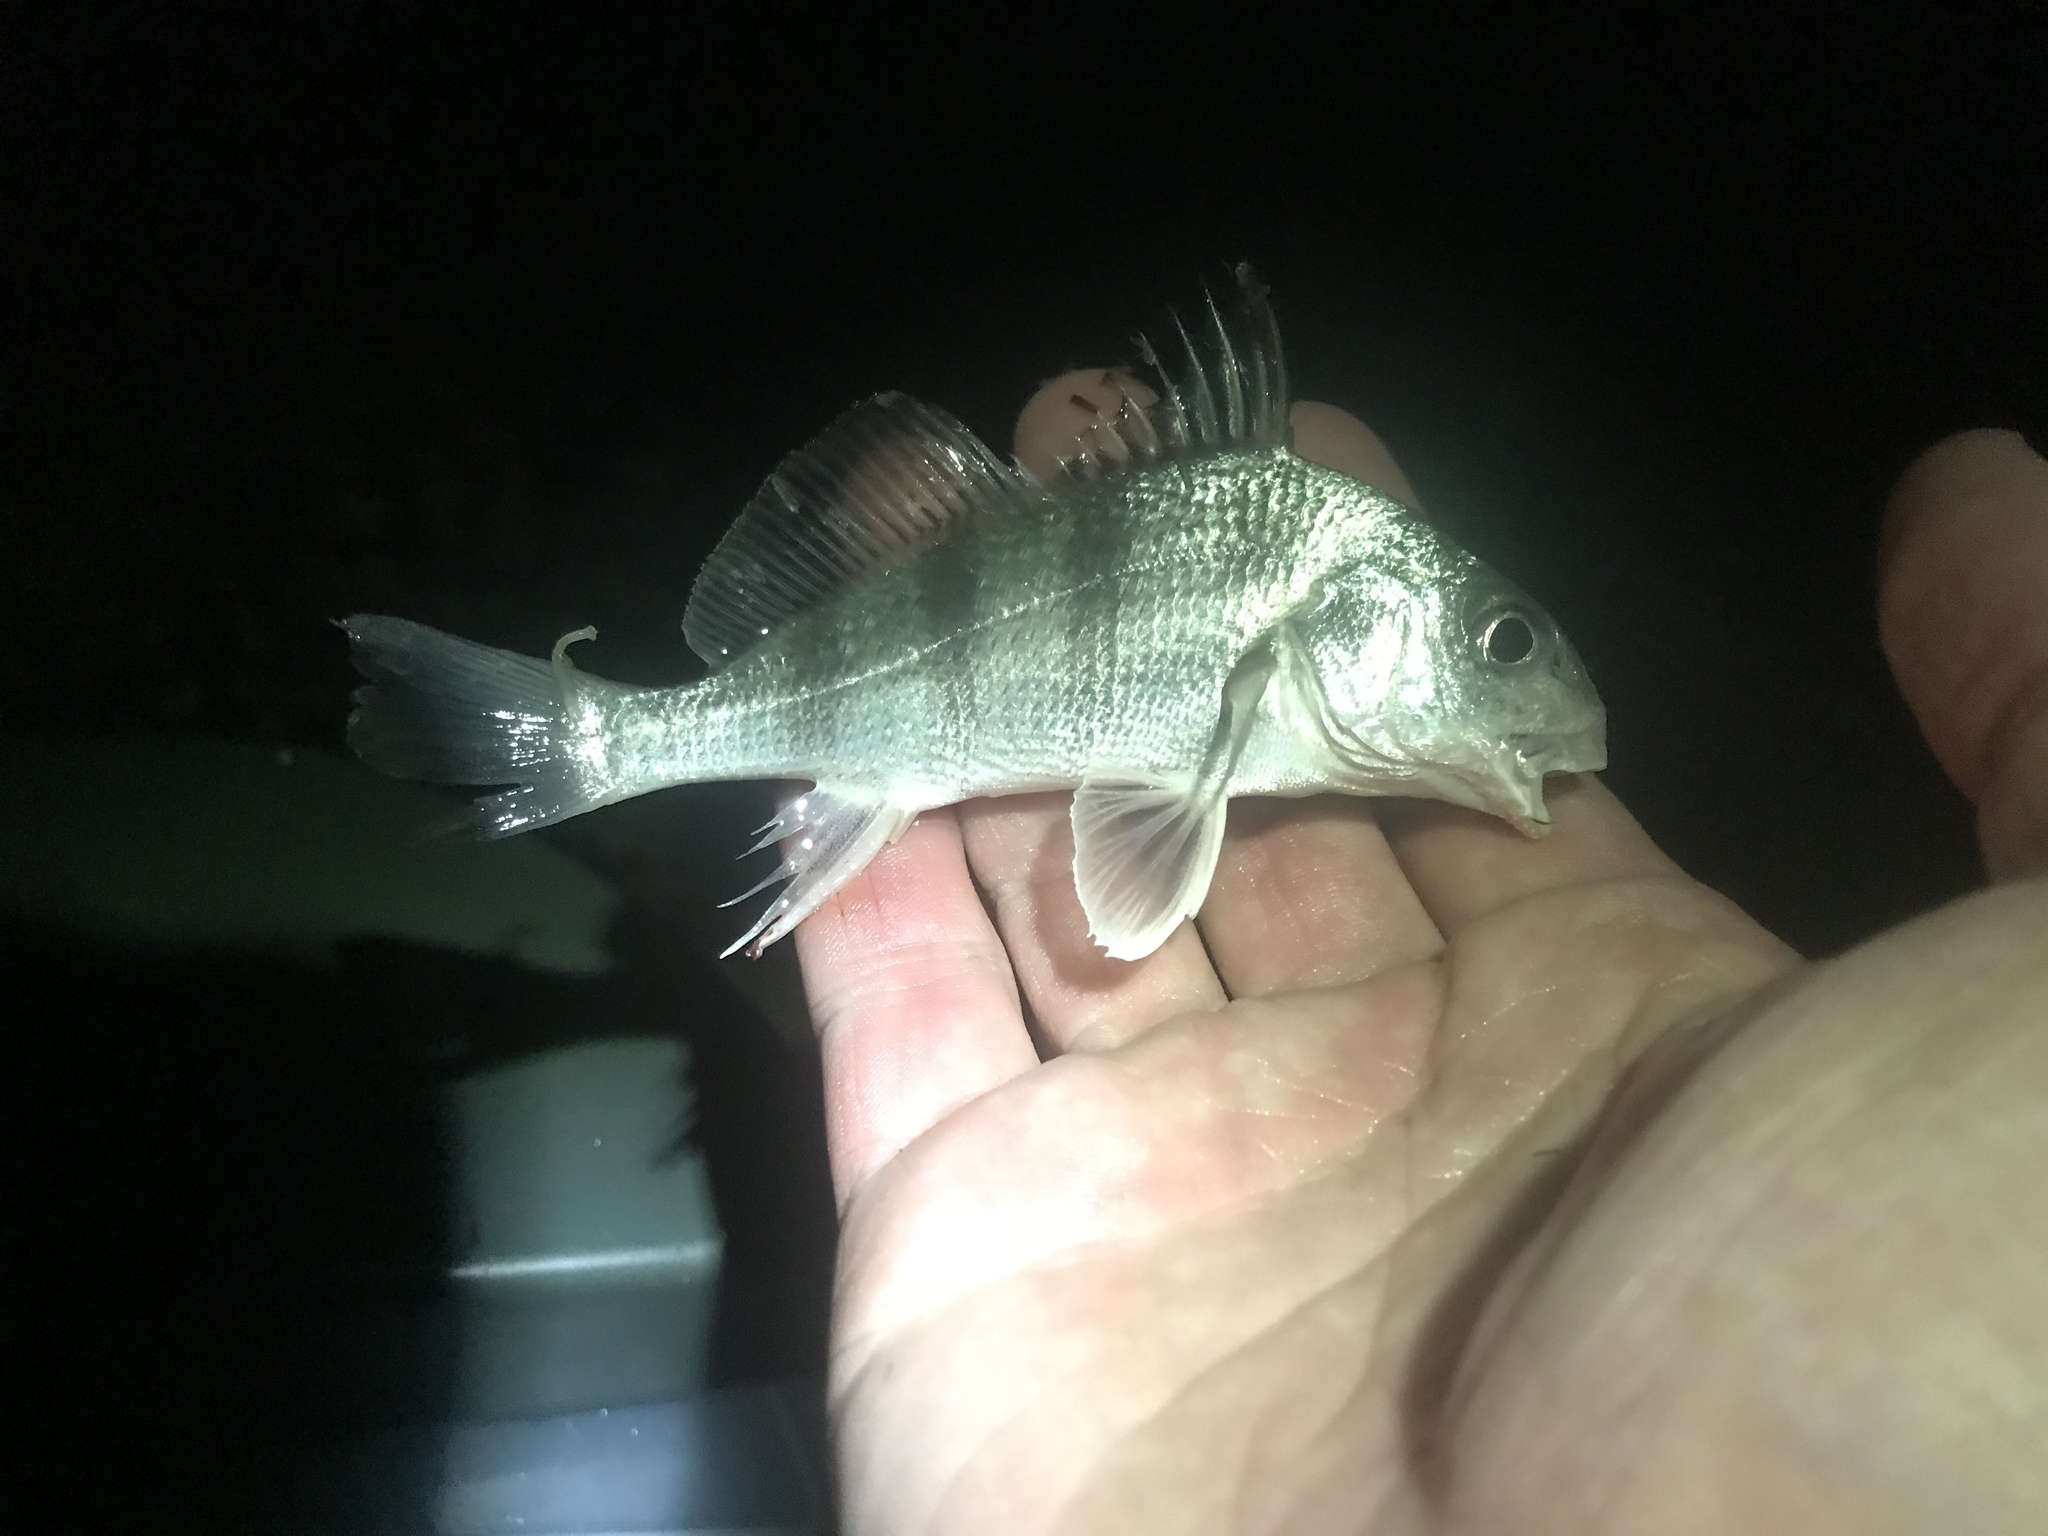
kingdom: Animalia
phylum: Chordata
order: Perciformes
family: Sciaenidae
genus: Pogonias
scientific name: Pogonias cromis
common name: Black drum
